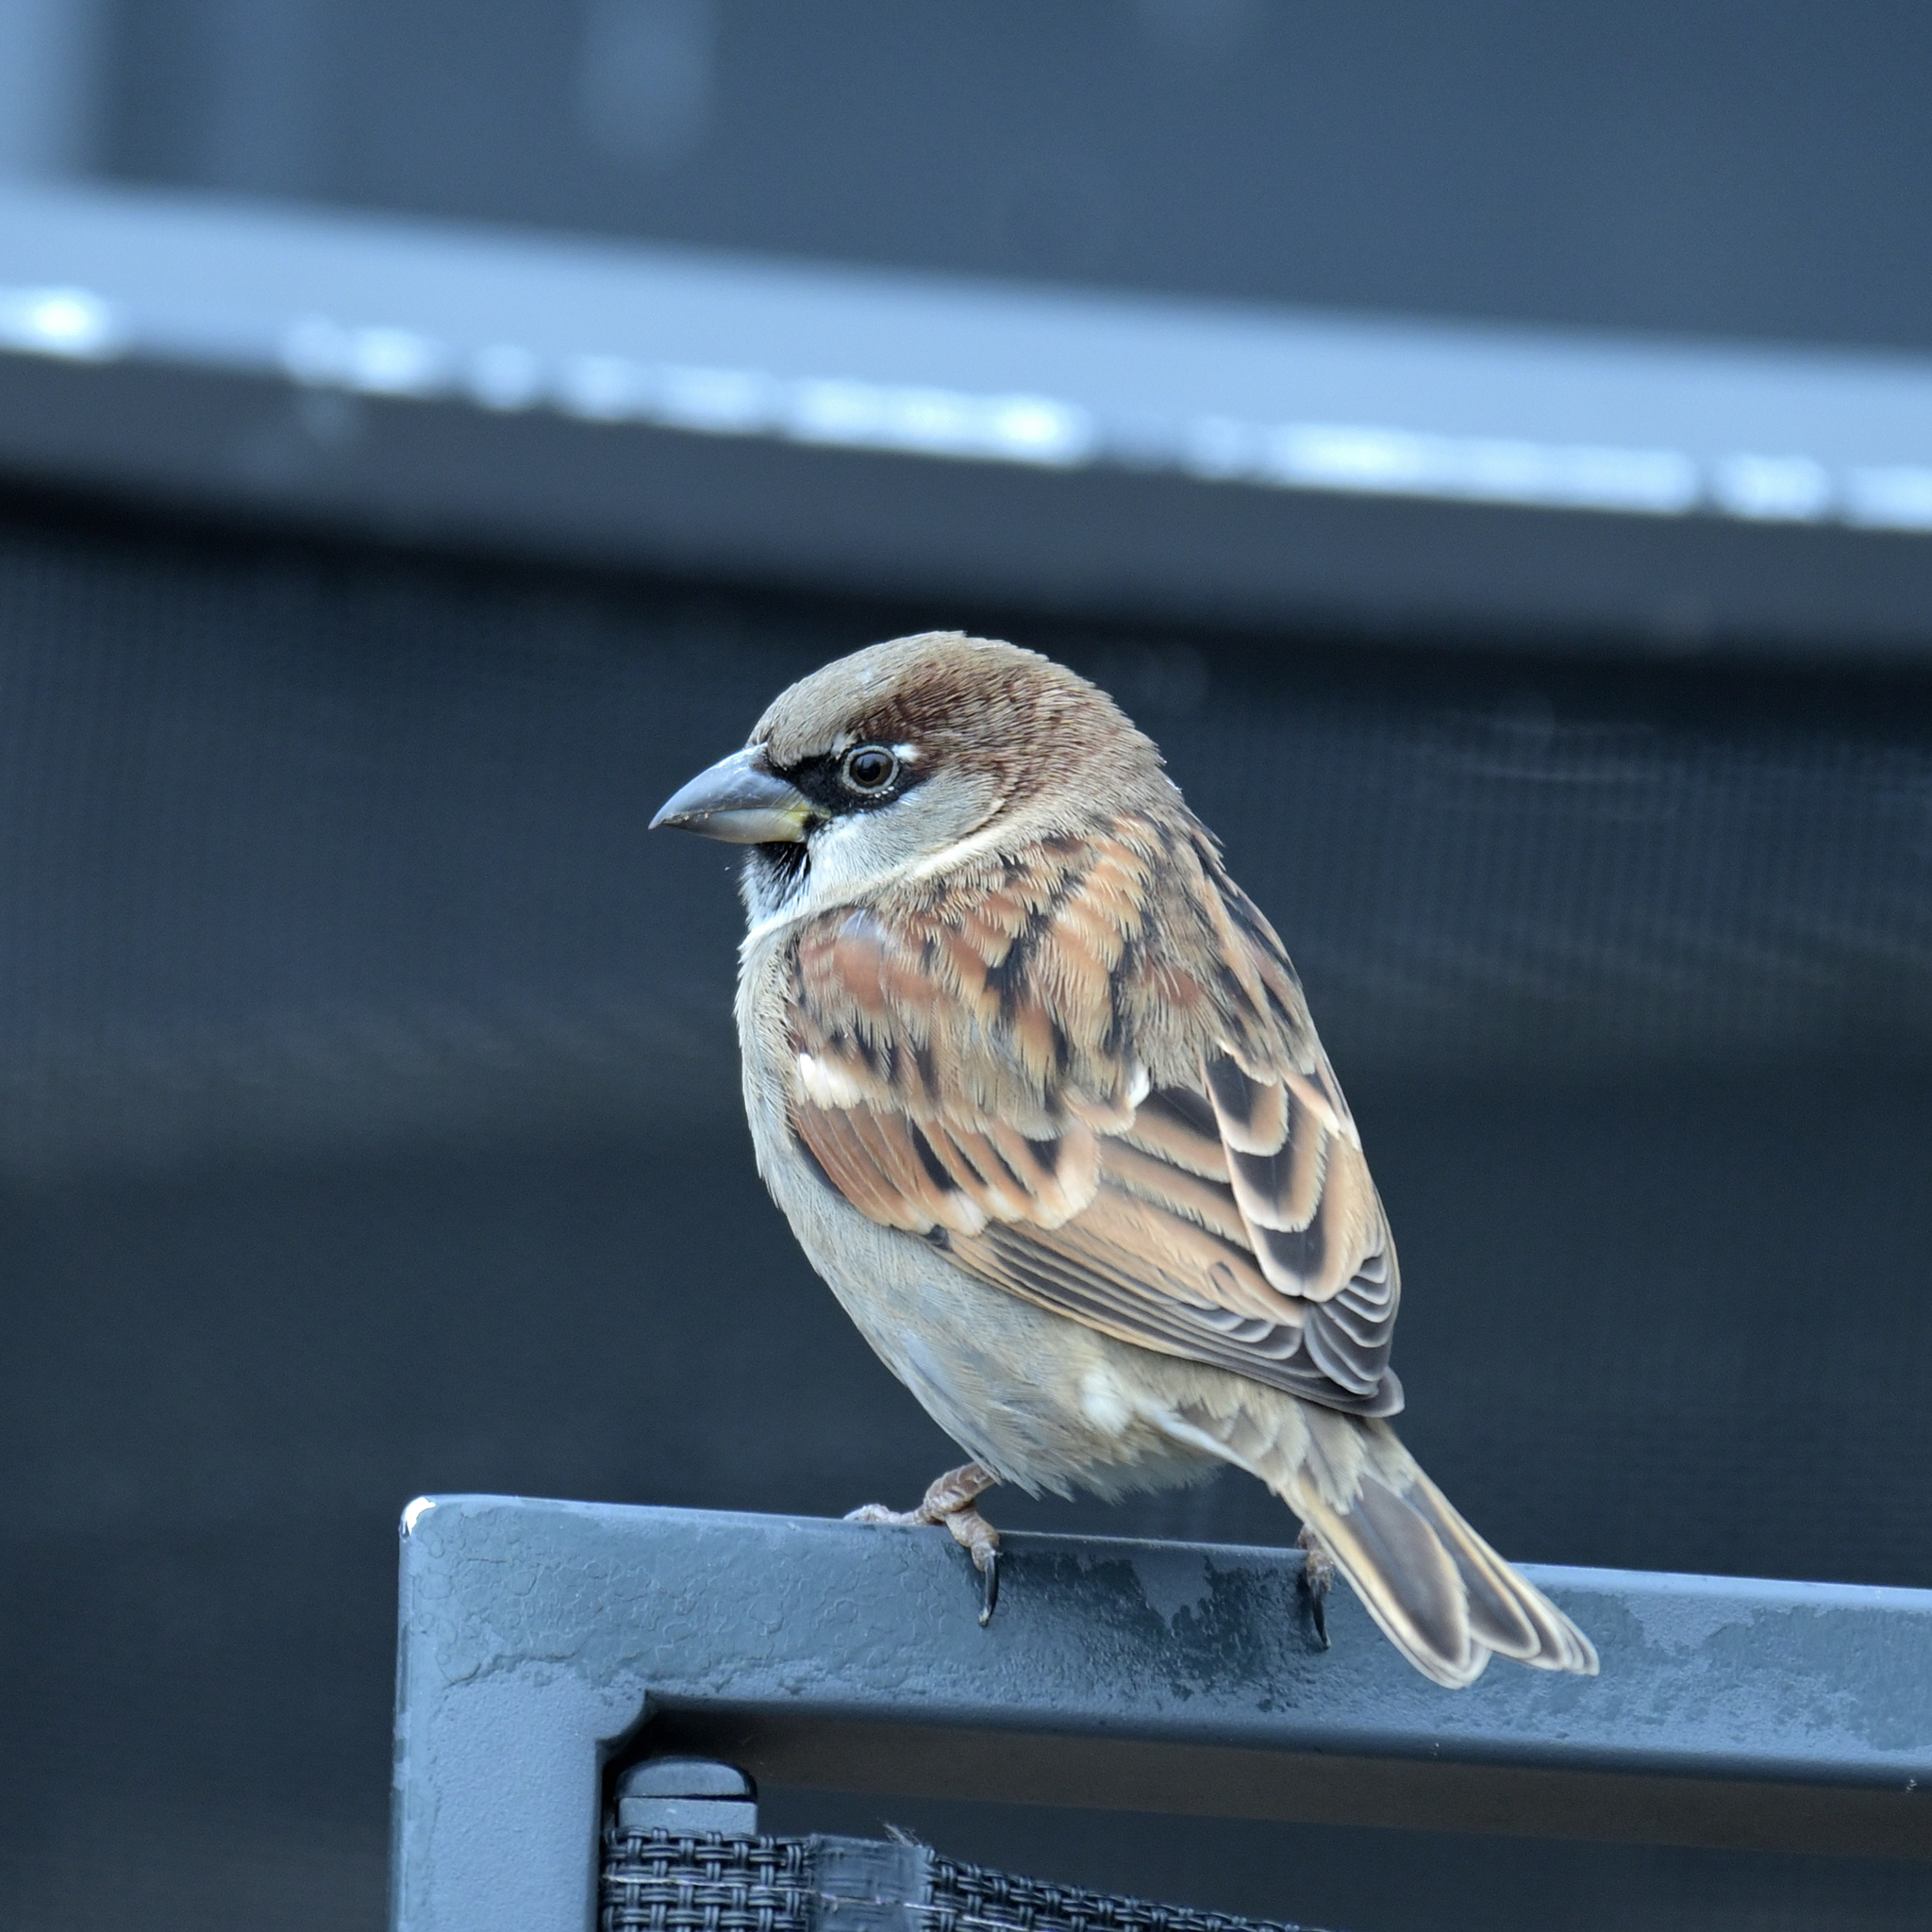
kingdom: Animalia
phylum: Chordata
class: Aves
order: Passeriformes
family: Passeridae
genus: Passer
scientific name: Passer domesticus
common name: House sparrow
